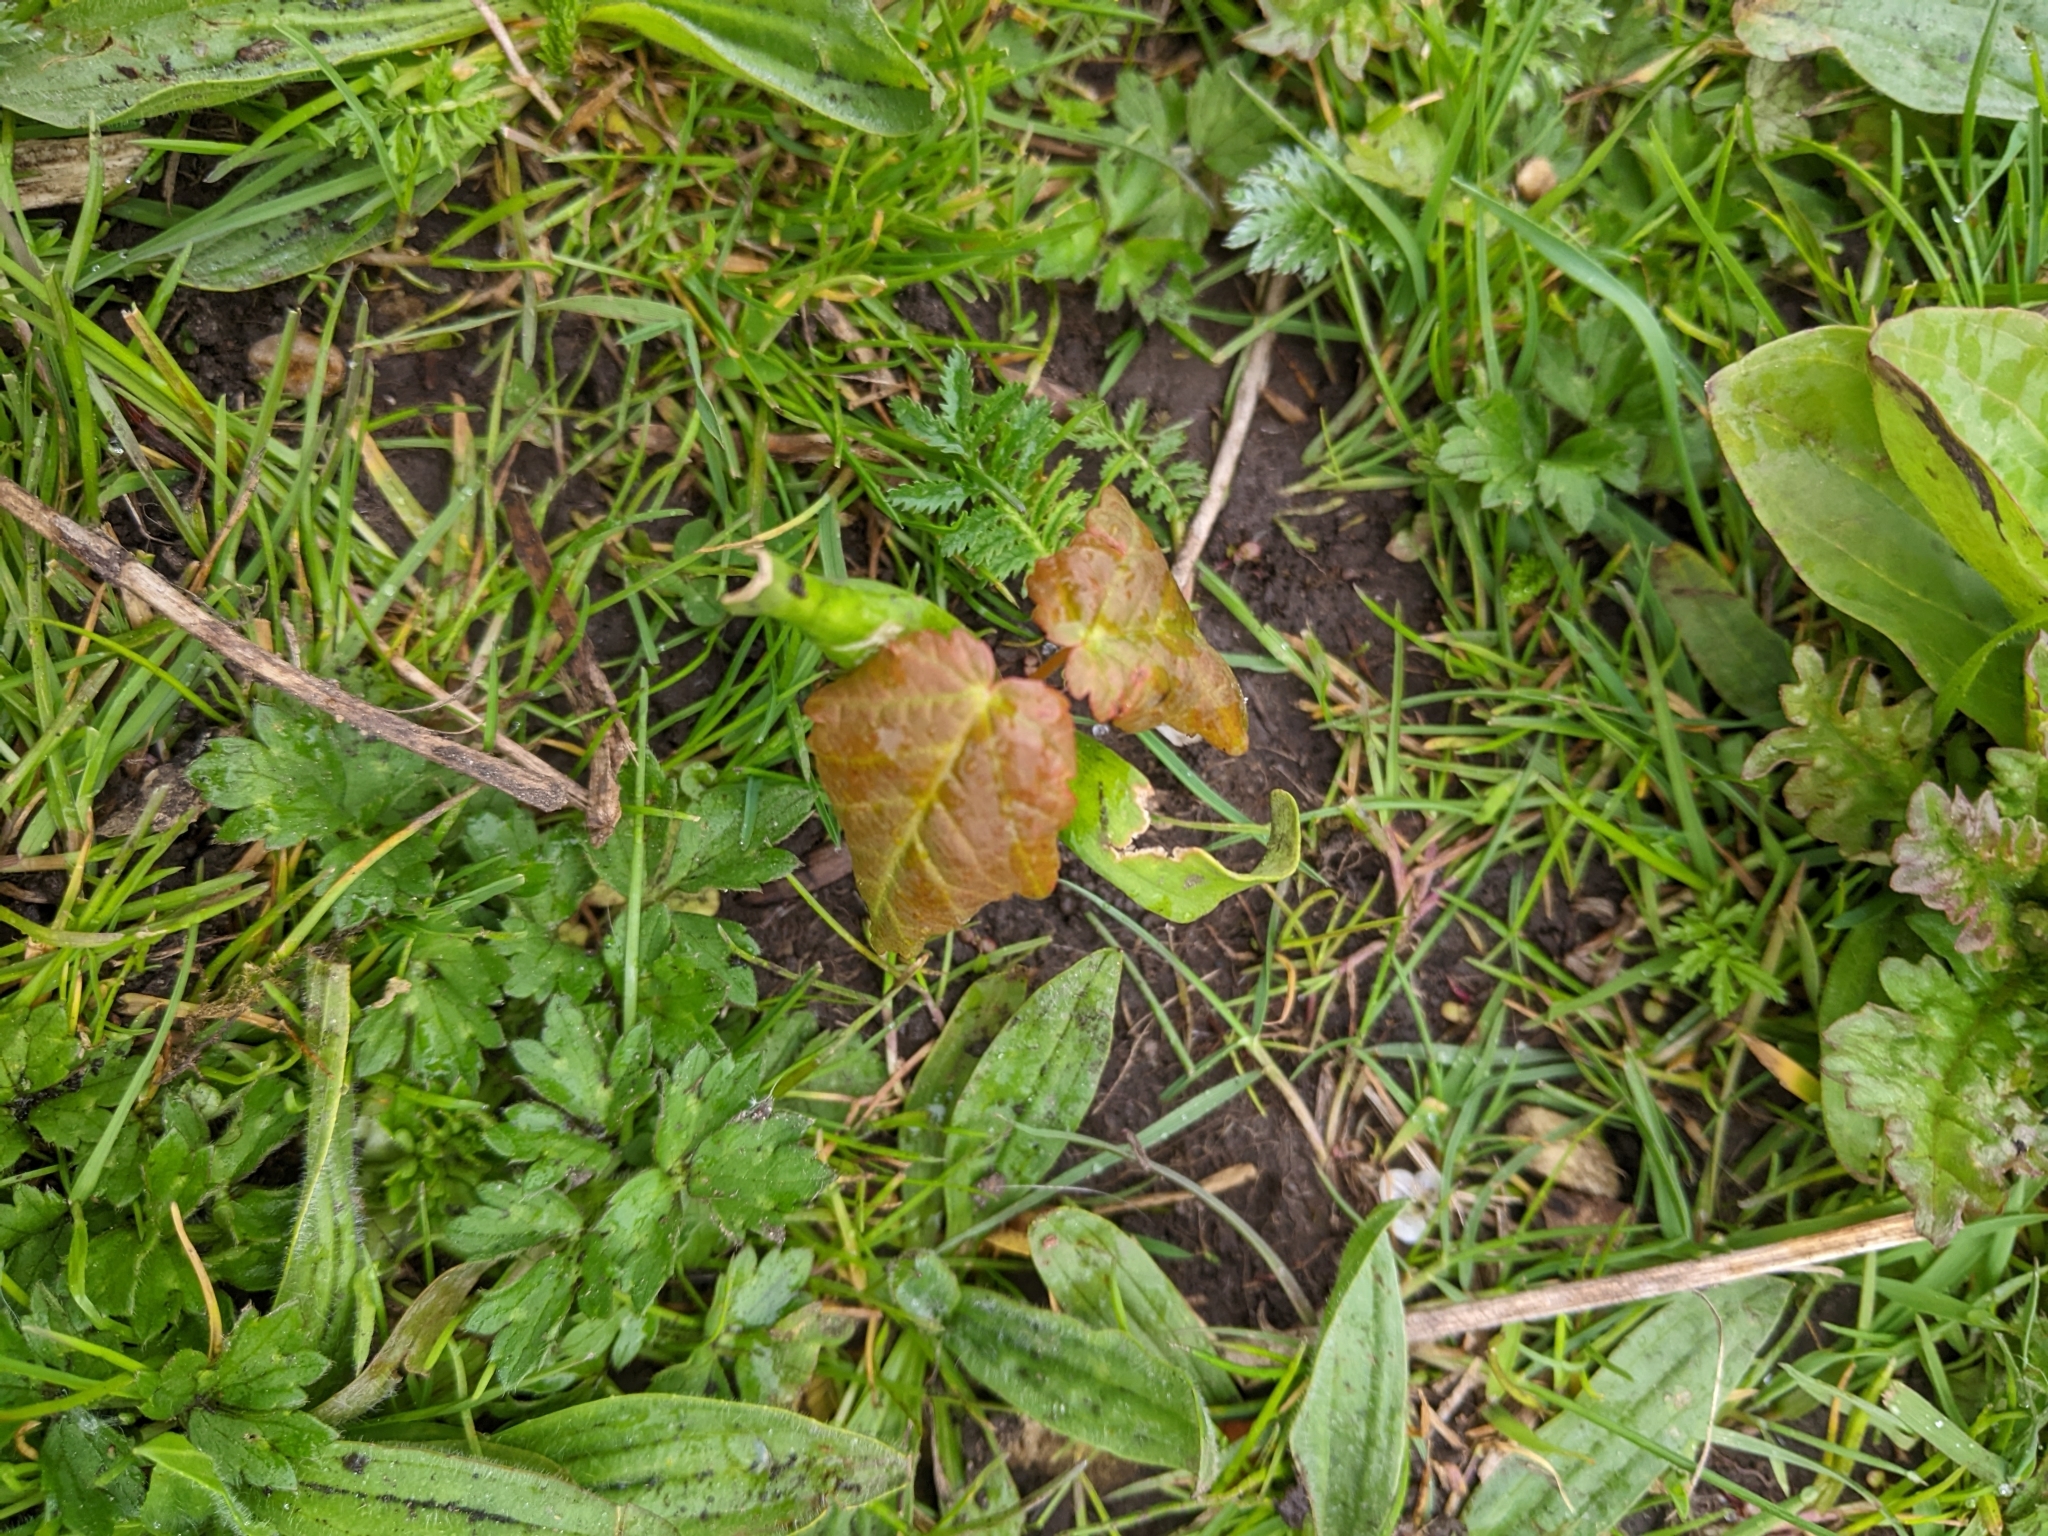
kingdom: Plantae
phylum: Tracheophyta
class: Magnoliopsida
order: Sapindales
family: Sapindaceae
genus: Acer
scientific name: Acer pseudoplatanus
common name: Sycamore
